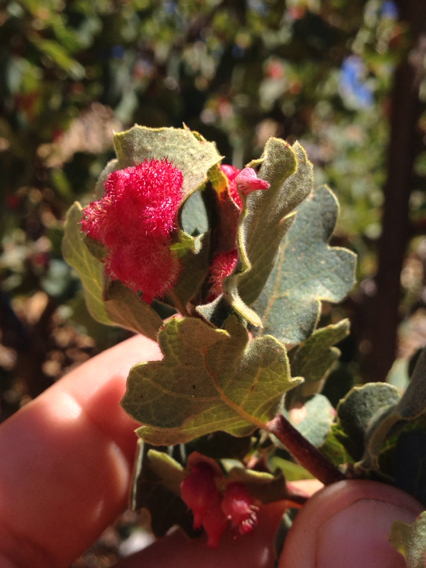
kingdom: Animalia
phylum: Arthropoda
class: Insecta
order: Hymenoptera
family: Cynipidae
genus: Andricus
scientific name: Andricus
